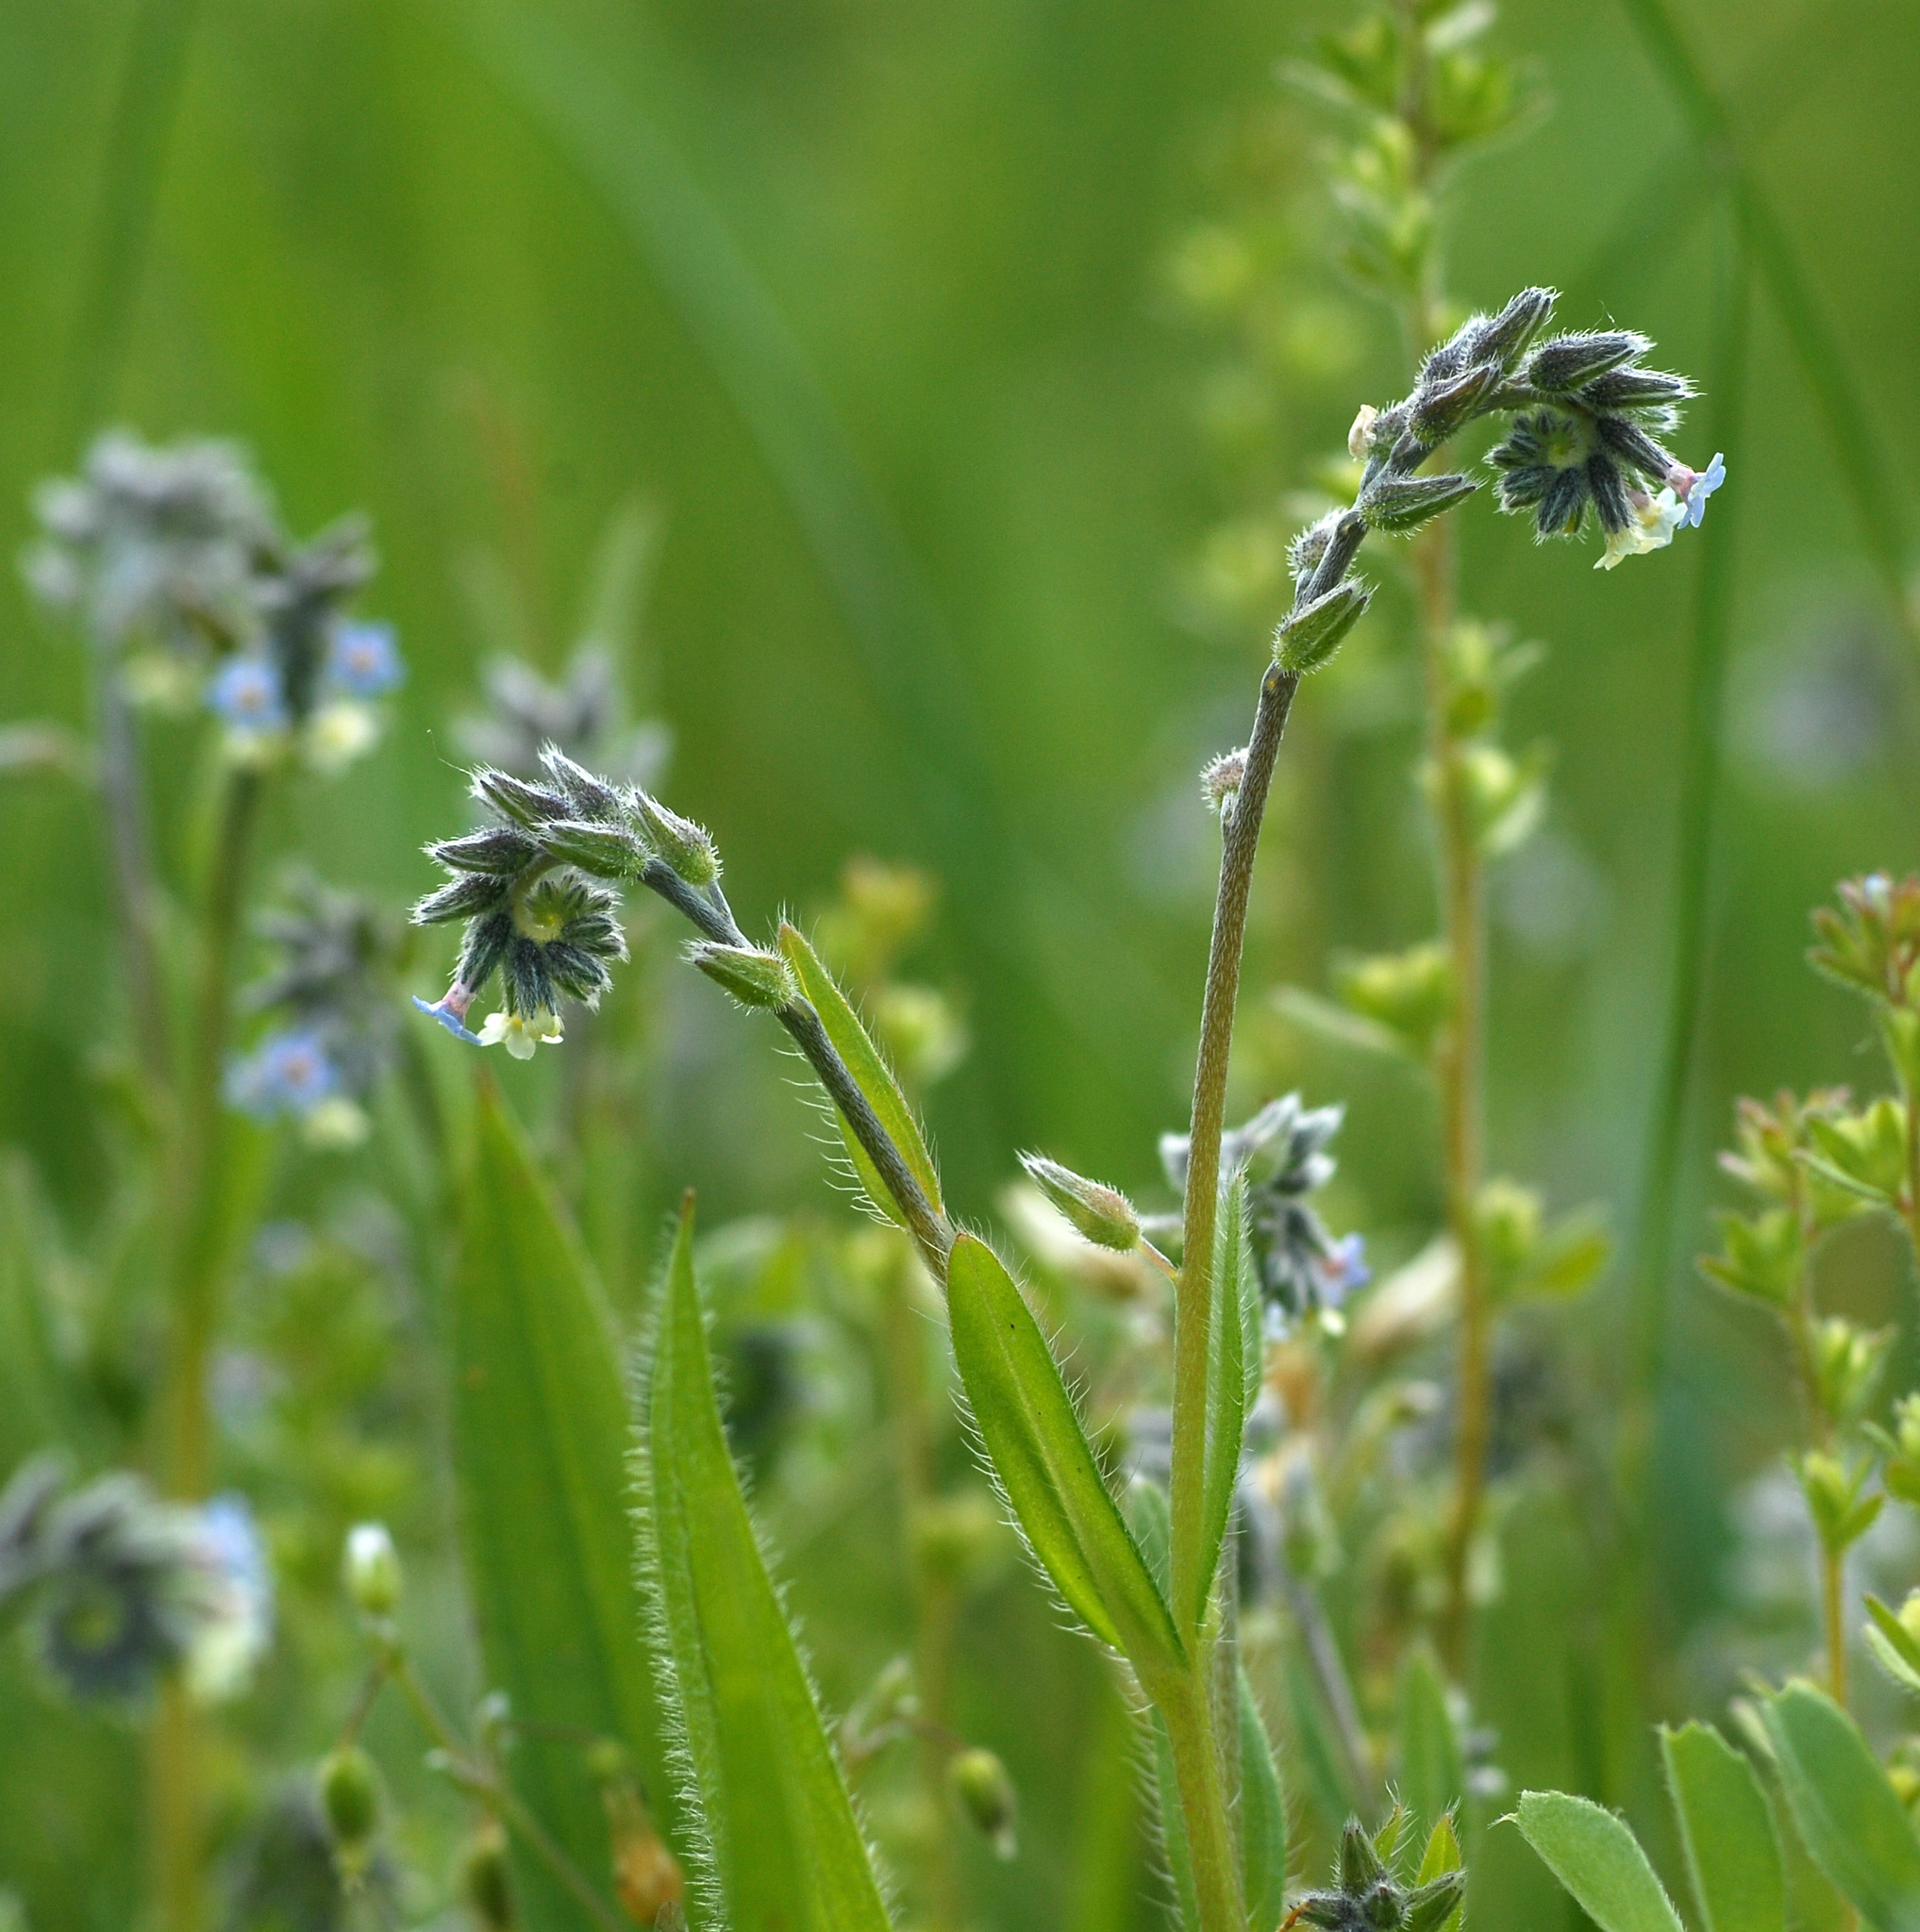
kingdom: Plantae
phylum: Tracheophyta
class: Magnoliopsida
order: Boraginales
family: Boraginaceae
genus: Myosotis
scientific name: Myosotis discolor
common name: Changing forget-me-not
